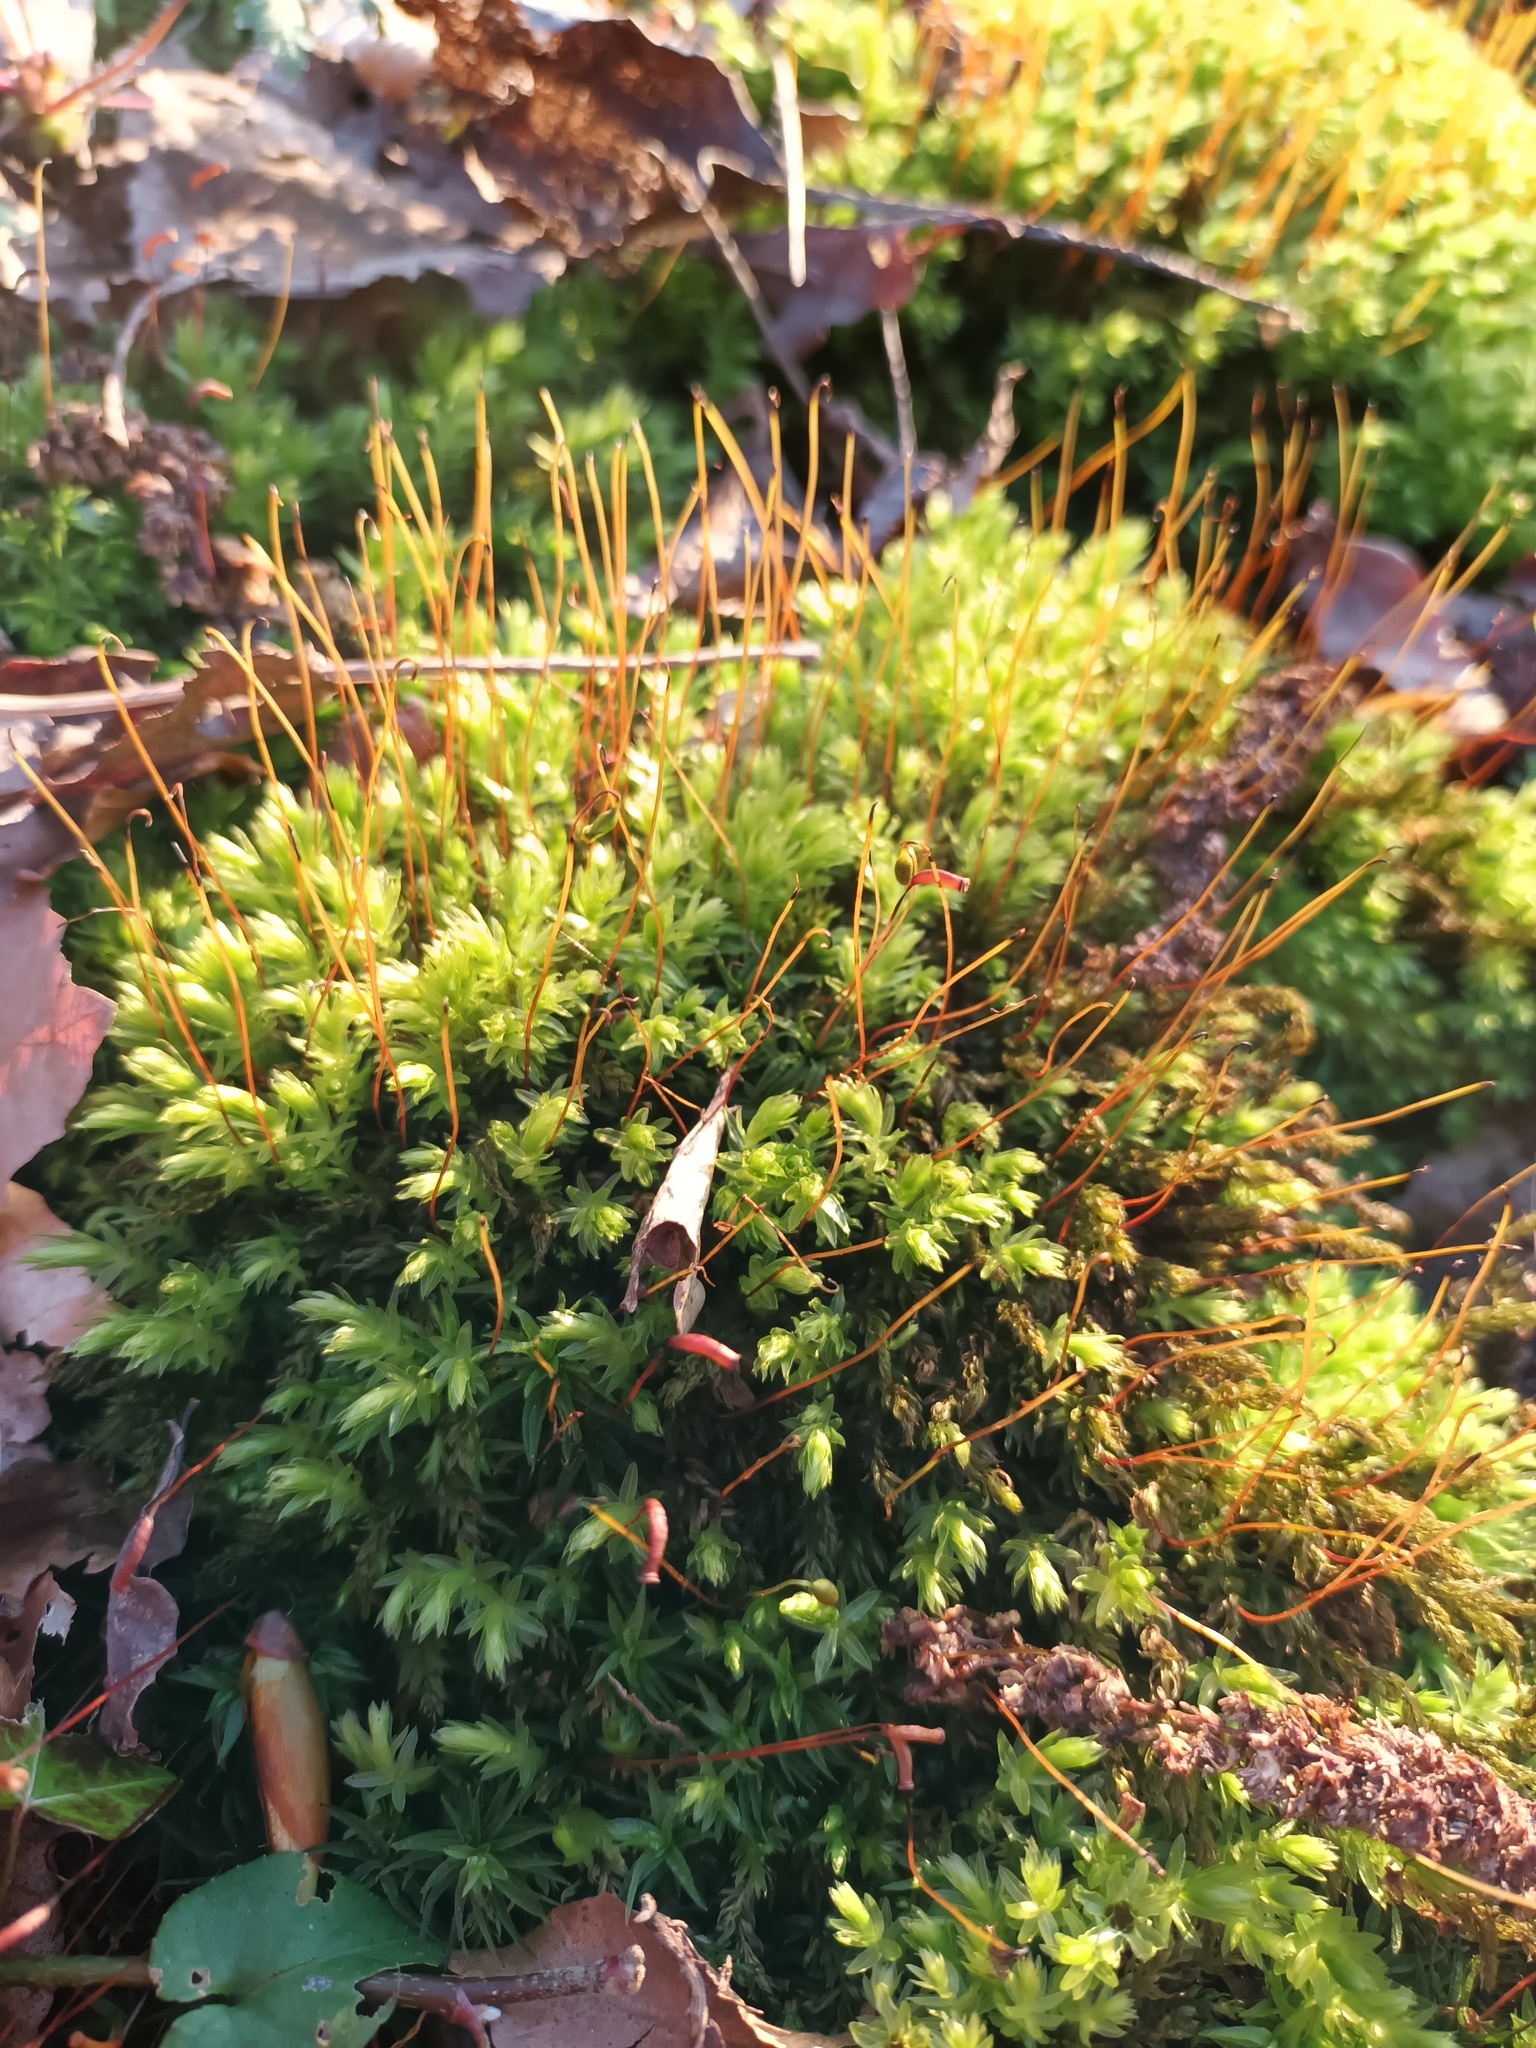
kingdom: Plantae
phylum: Bryophyta
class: Bryopsida
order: Bryales
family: Mniaceae
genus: Mnium
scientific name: Mnium hornum
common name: Swan's-neck leafy moss
